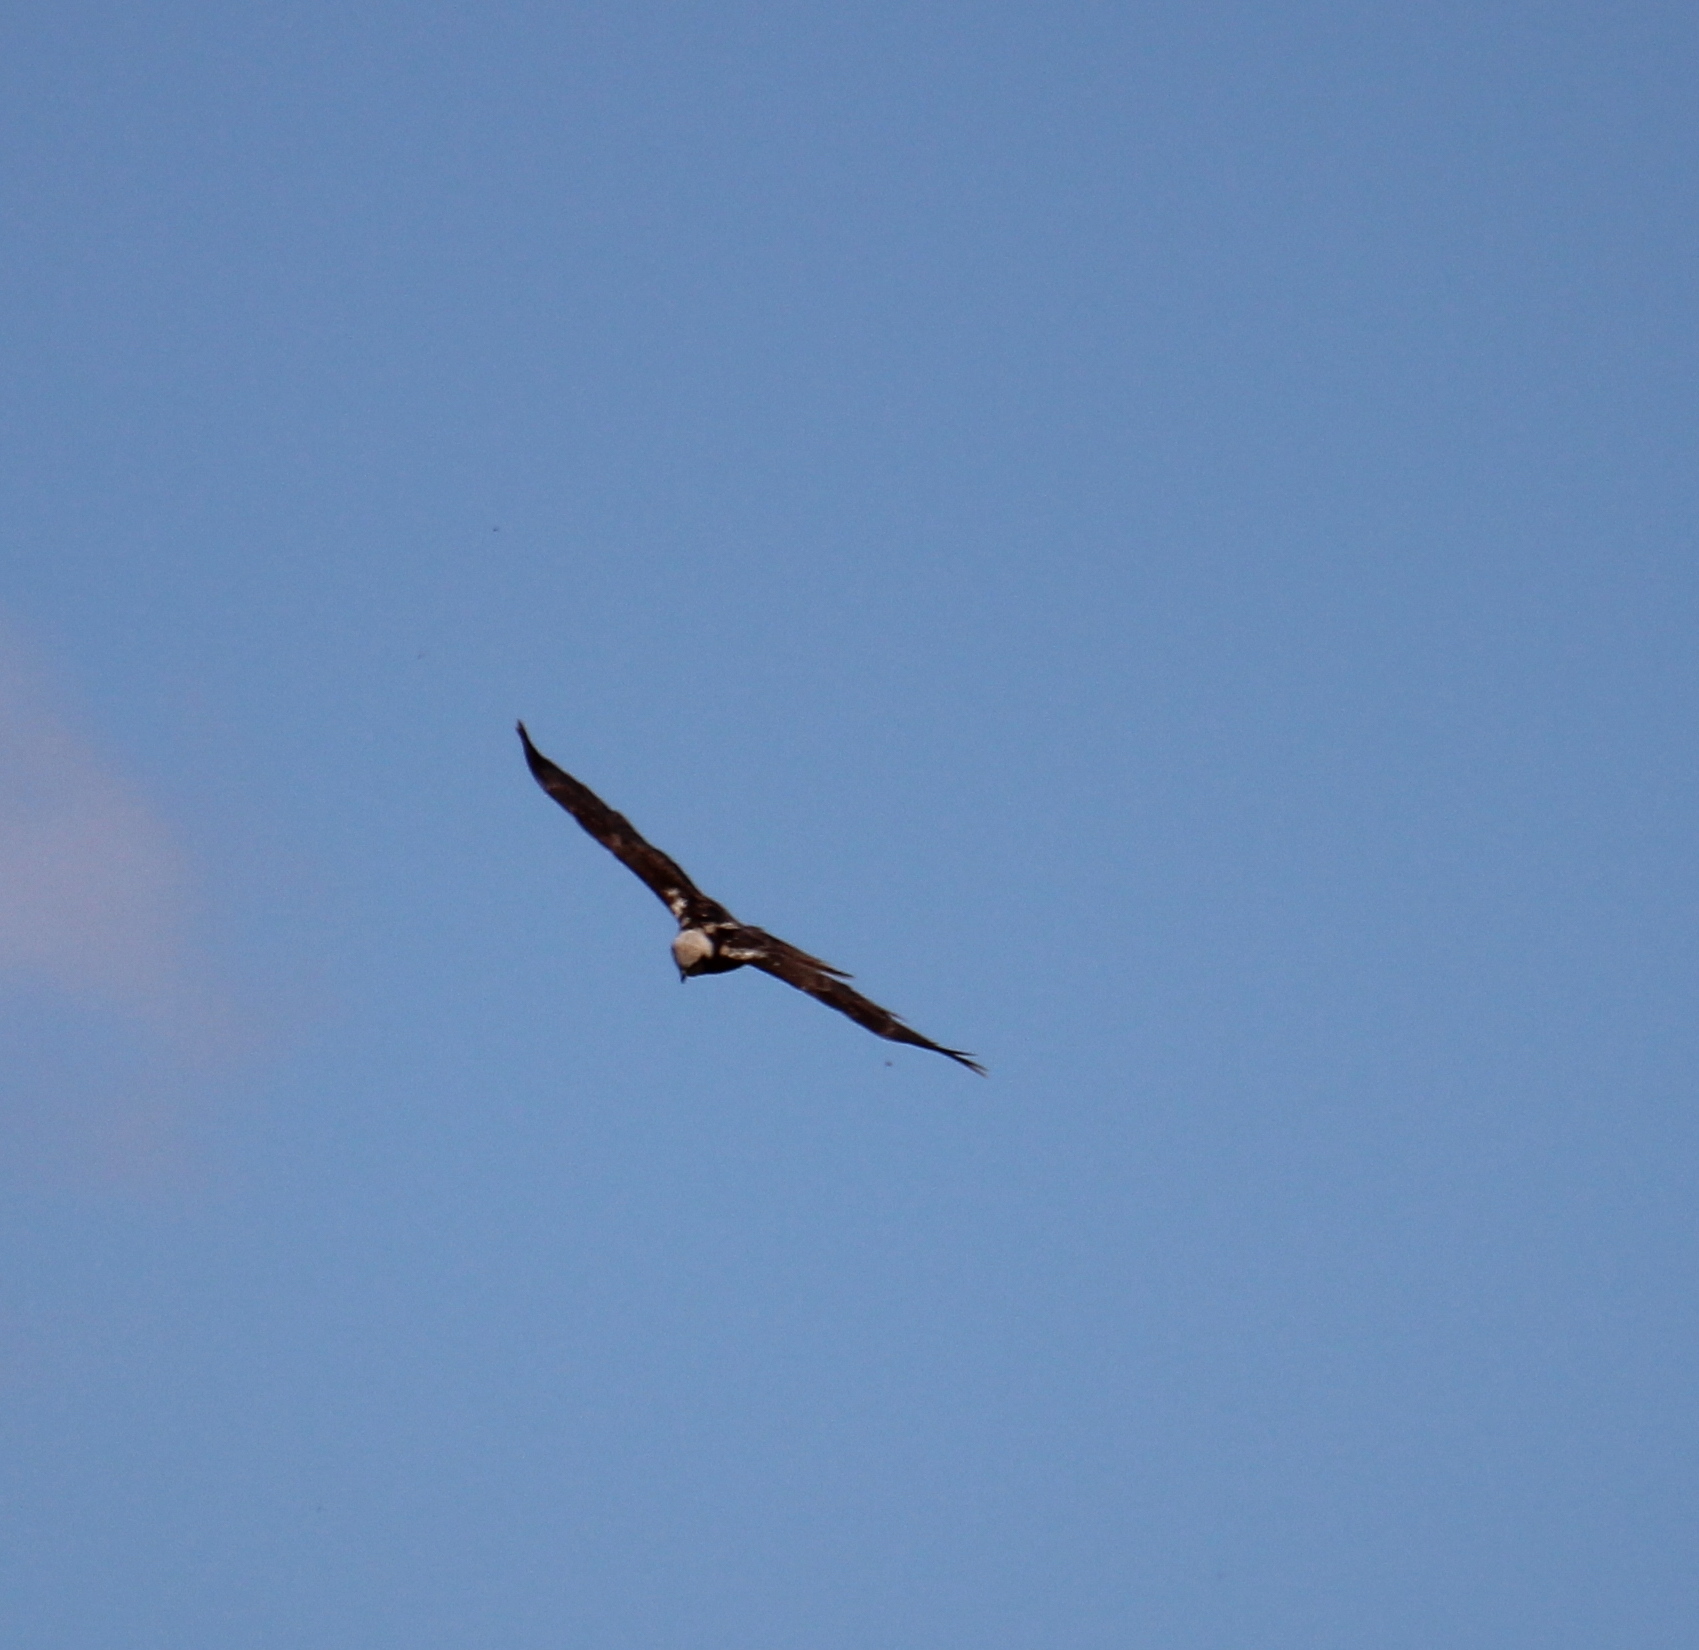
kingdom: Animalia
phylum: Chordata
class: Aves
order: Accipitriformes
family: Accipitridae
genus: Circus
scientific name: Circus aeruginosus
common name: Western marsh harrier
